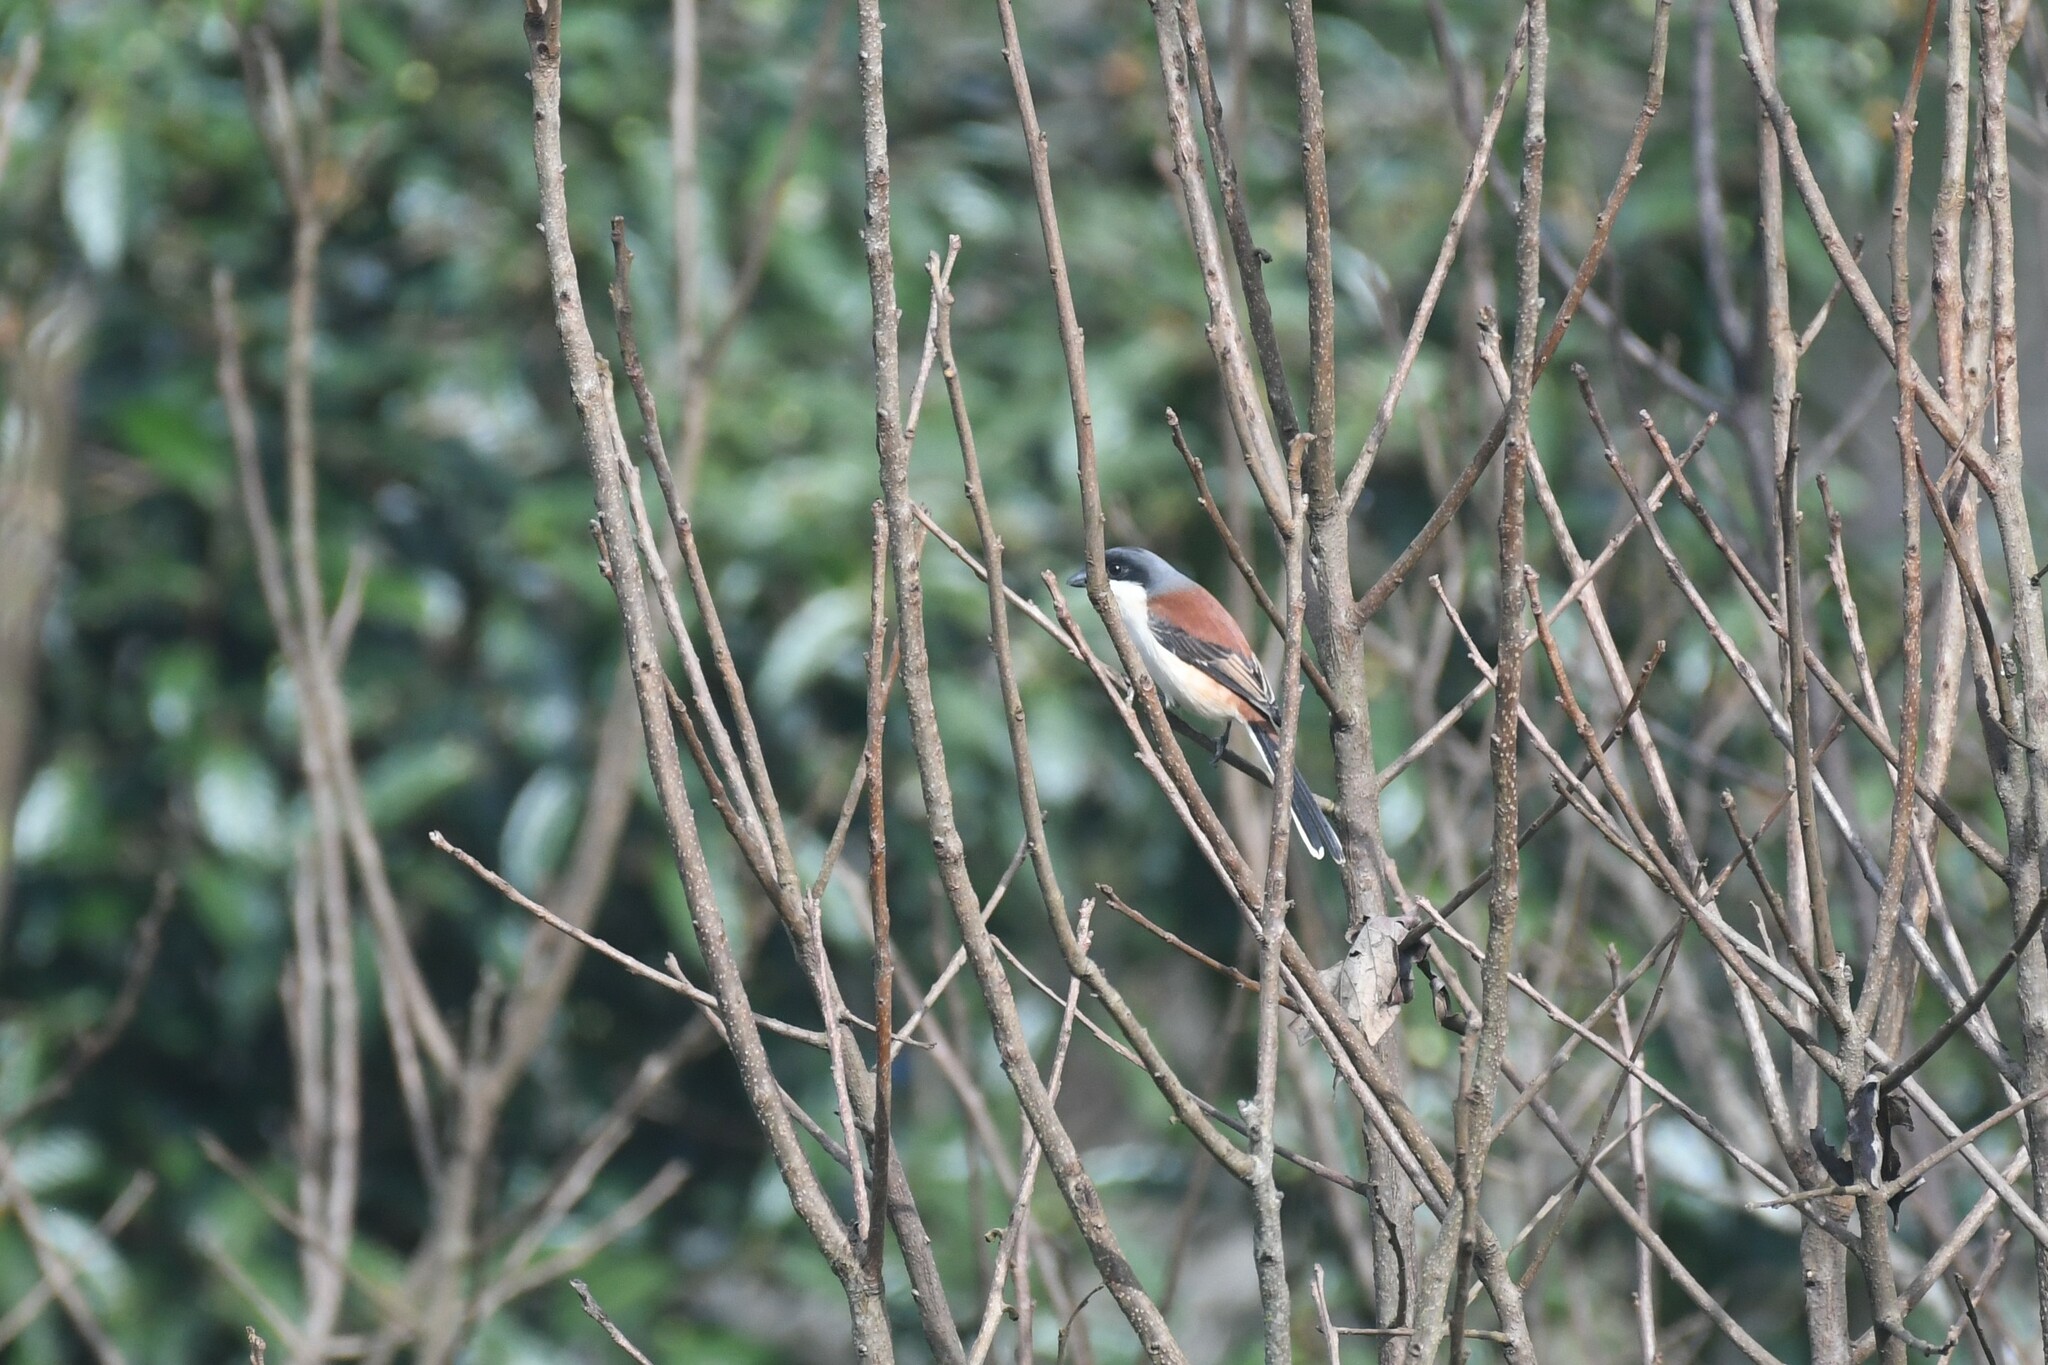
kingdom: Animalia
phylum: Chordata
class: Aves
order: Passeriformes
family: Laniidae
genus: Lanius
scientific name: Lanius collurioides
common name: Burmese shrike
